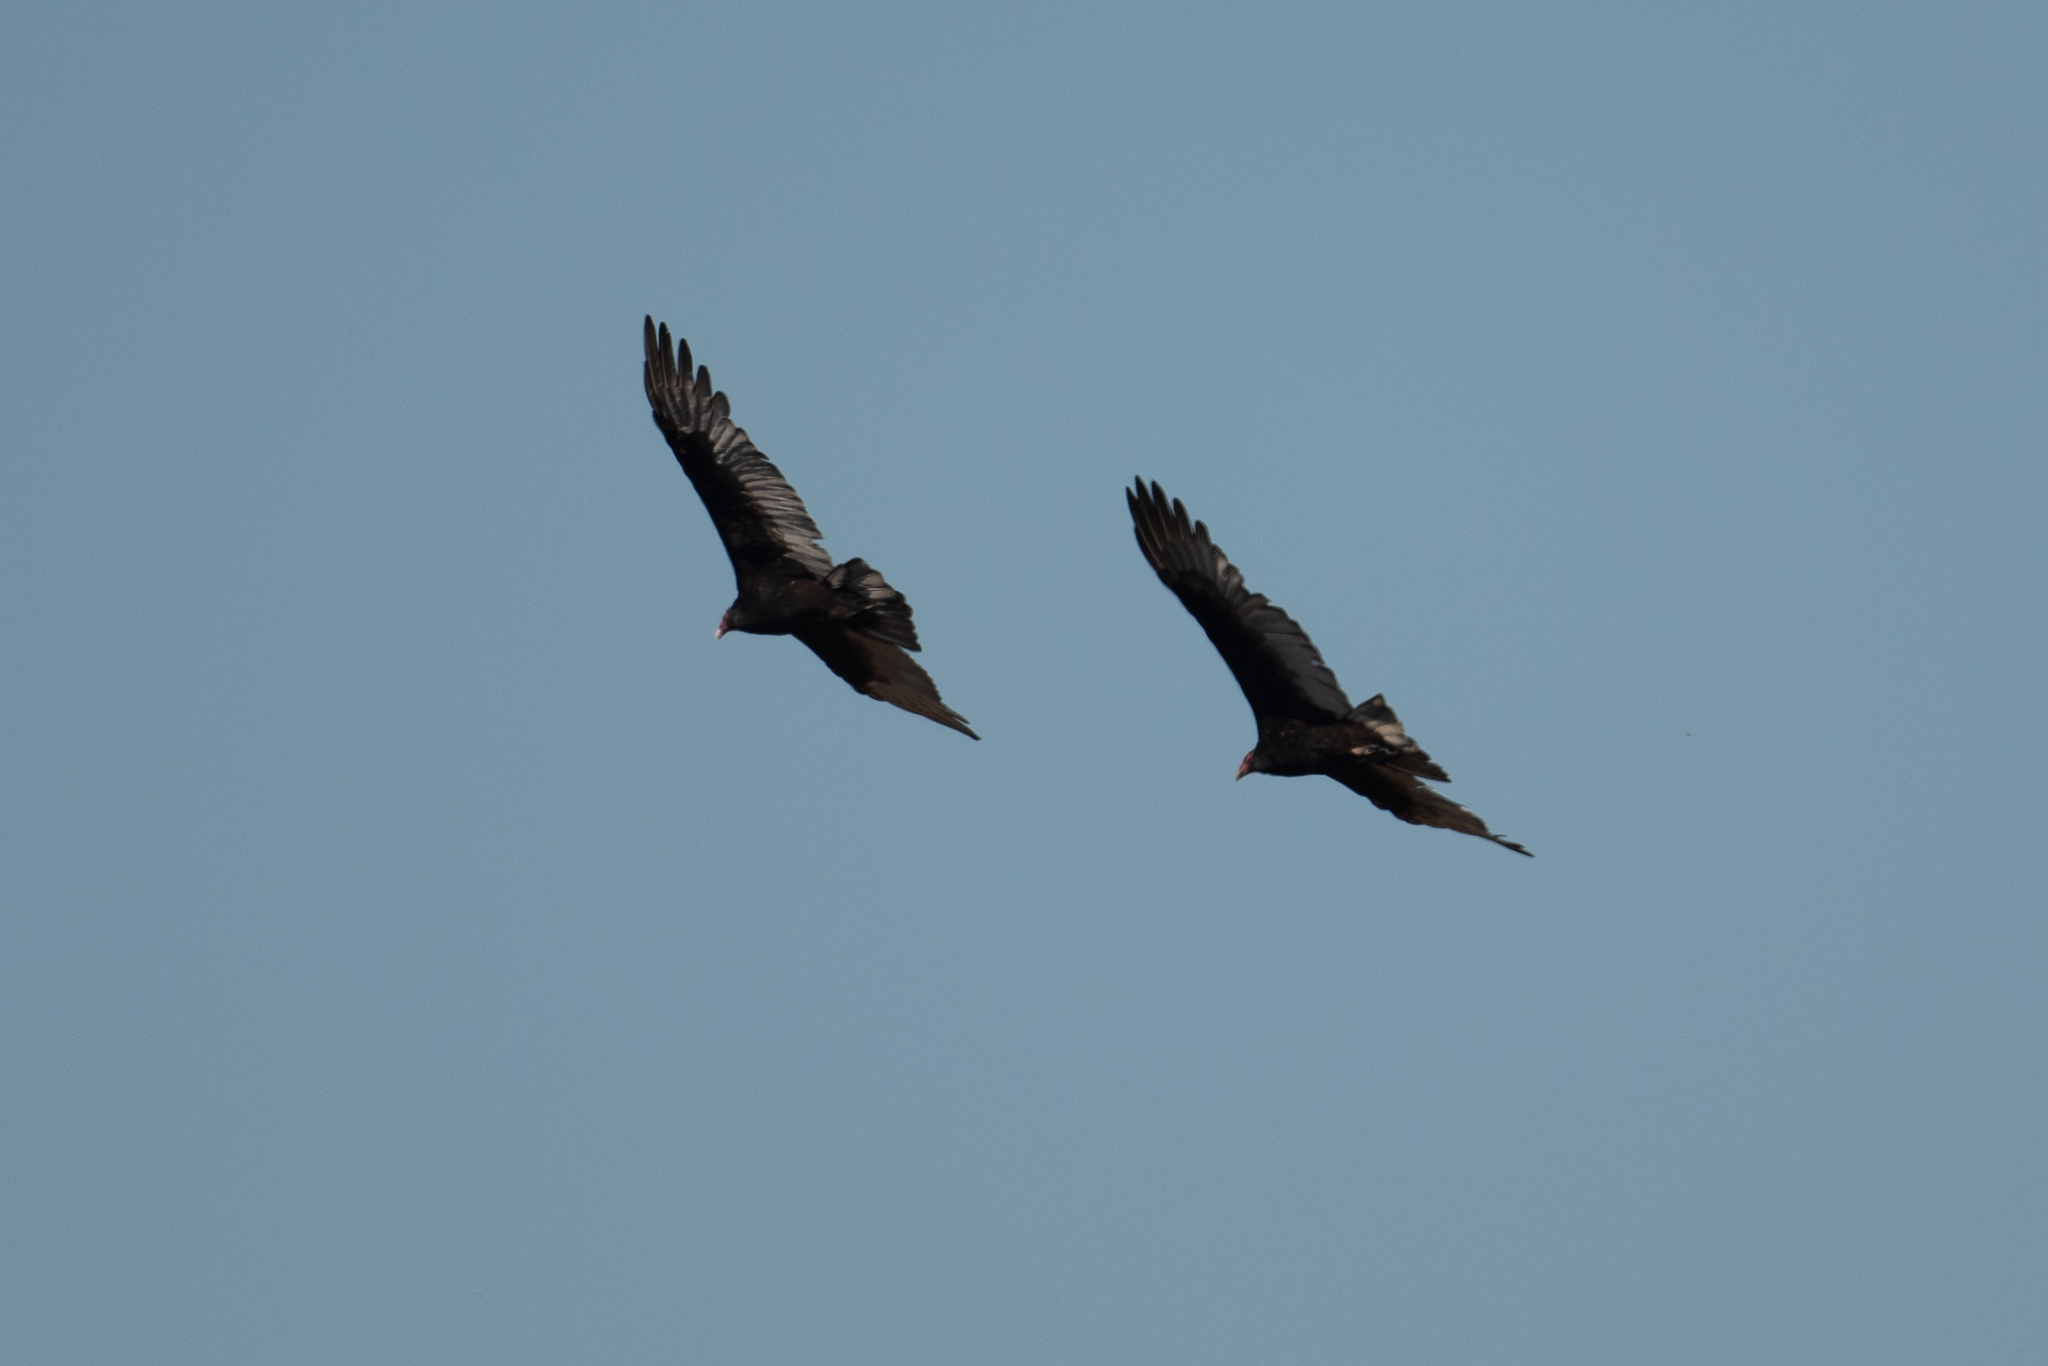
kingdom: Animalia
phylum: Chordata
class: Aves
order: Accipitriformes
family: Cathartidae
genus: Cathartes
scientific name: Cathartes aura
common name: Turkey vulture
